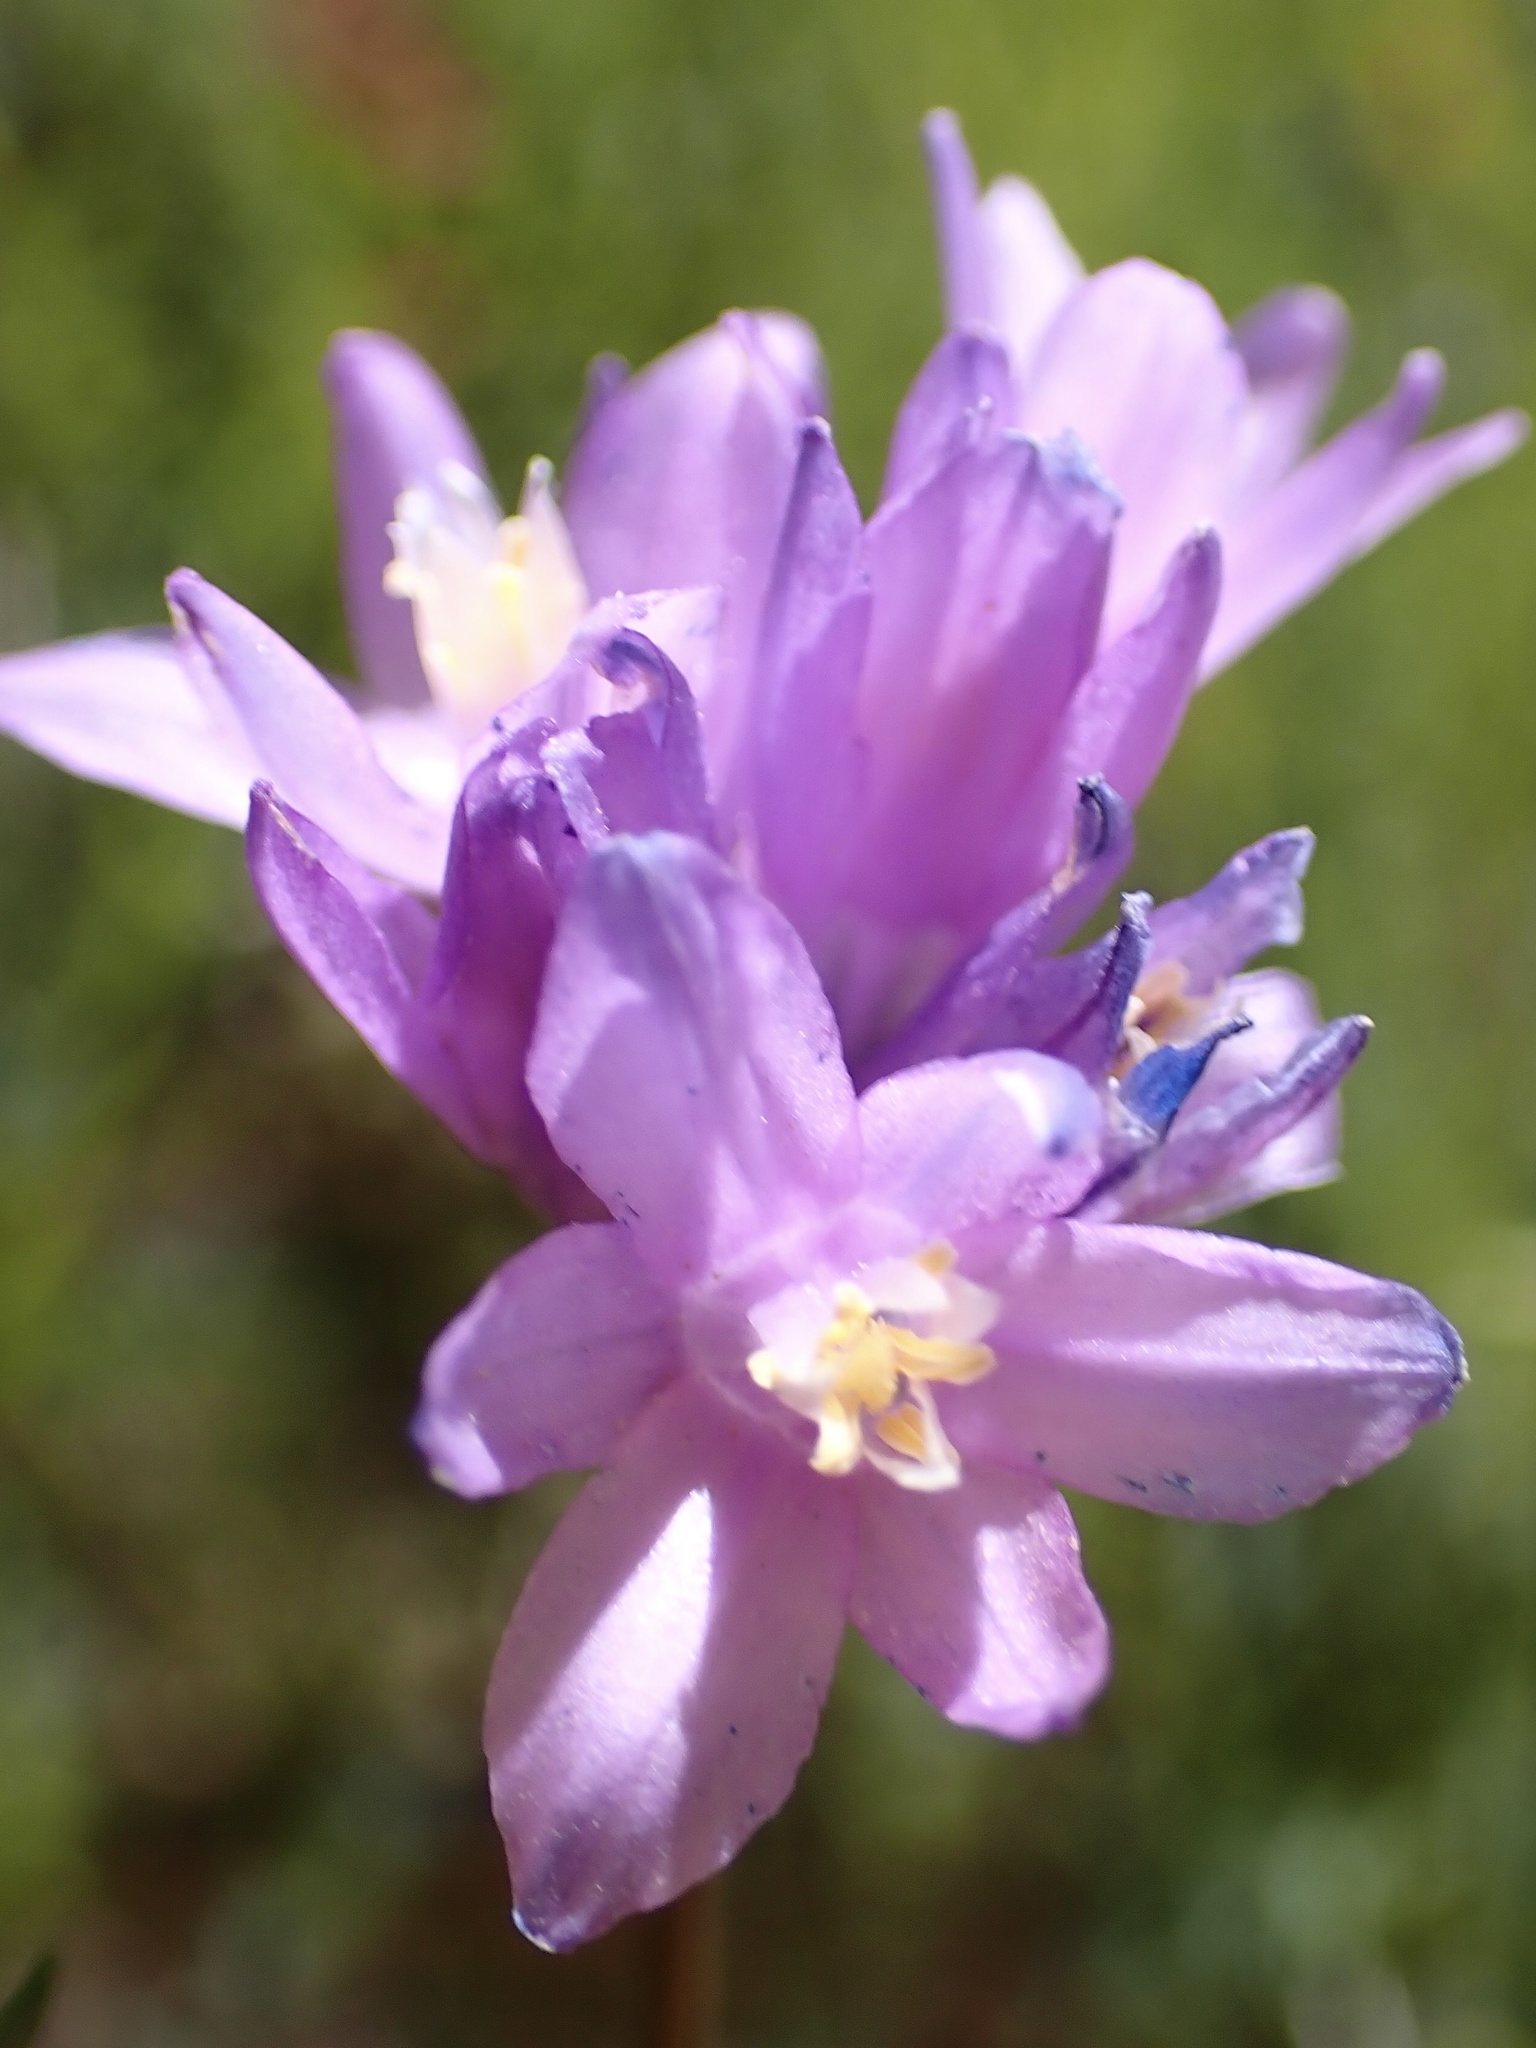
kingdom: Plantae
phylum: Tracheophyta
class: Liliopsida
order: Asparagales
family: Asparagaceae
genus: Dipterostemon
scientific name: Dipterostemon capitatus
